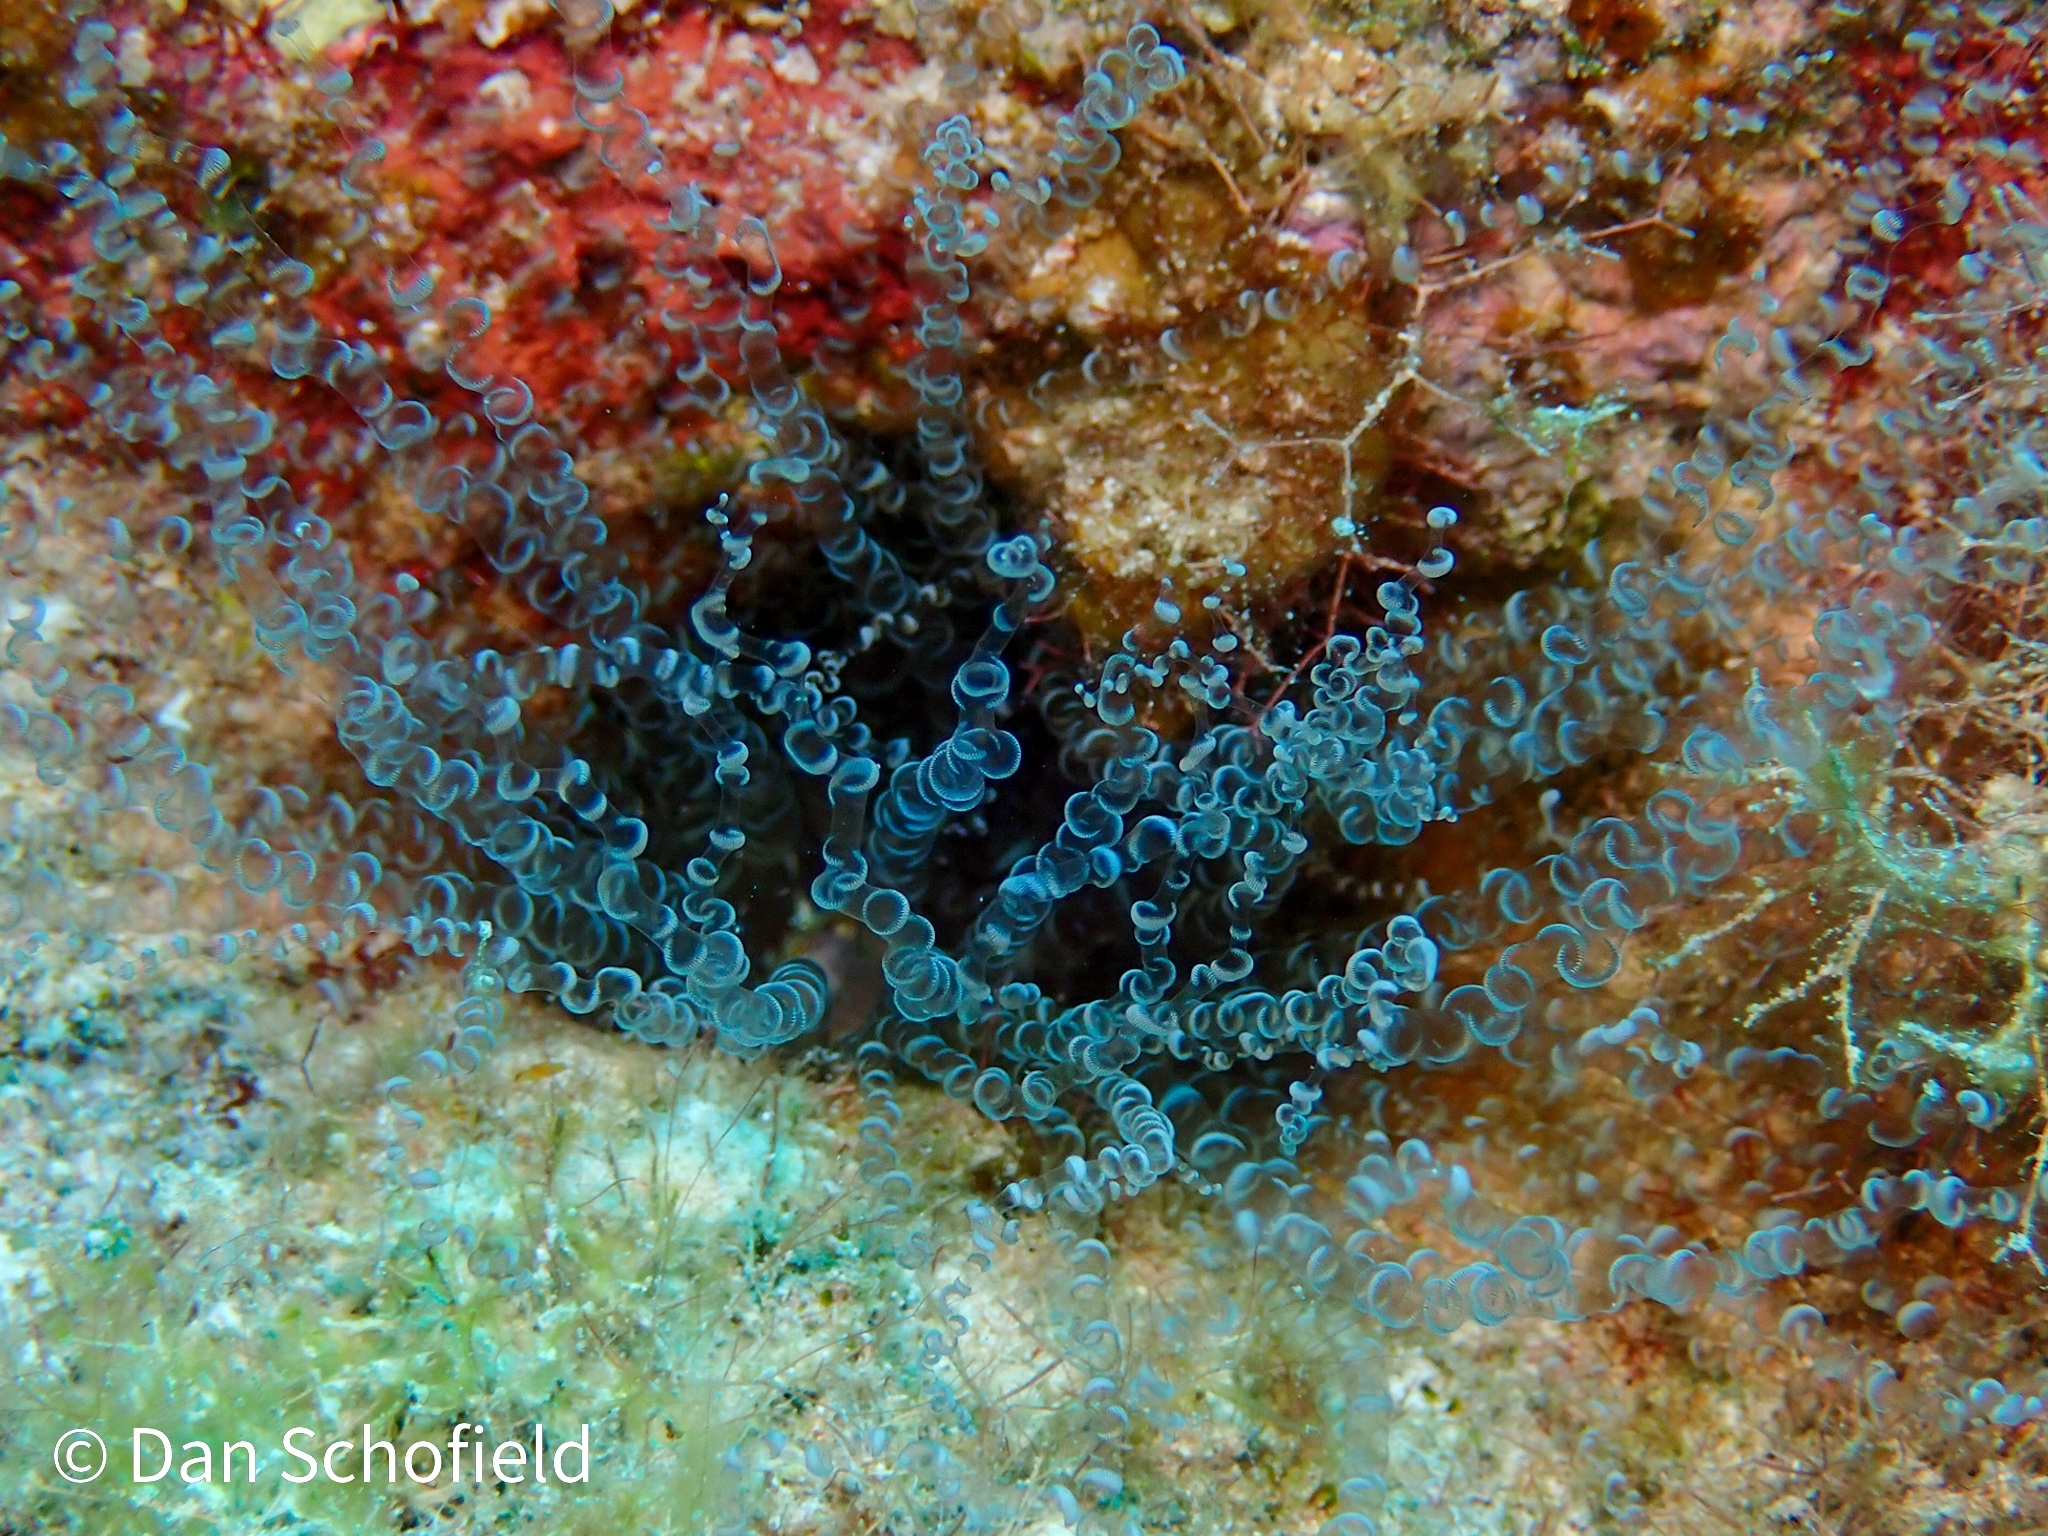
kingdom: Animalia
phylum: Cnidaria
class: Anthozoa
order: Actiniaria
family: Aiptasiidae
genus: Bartholomea
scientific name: Bartholomea annulata
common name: Corkscrew anemone
